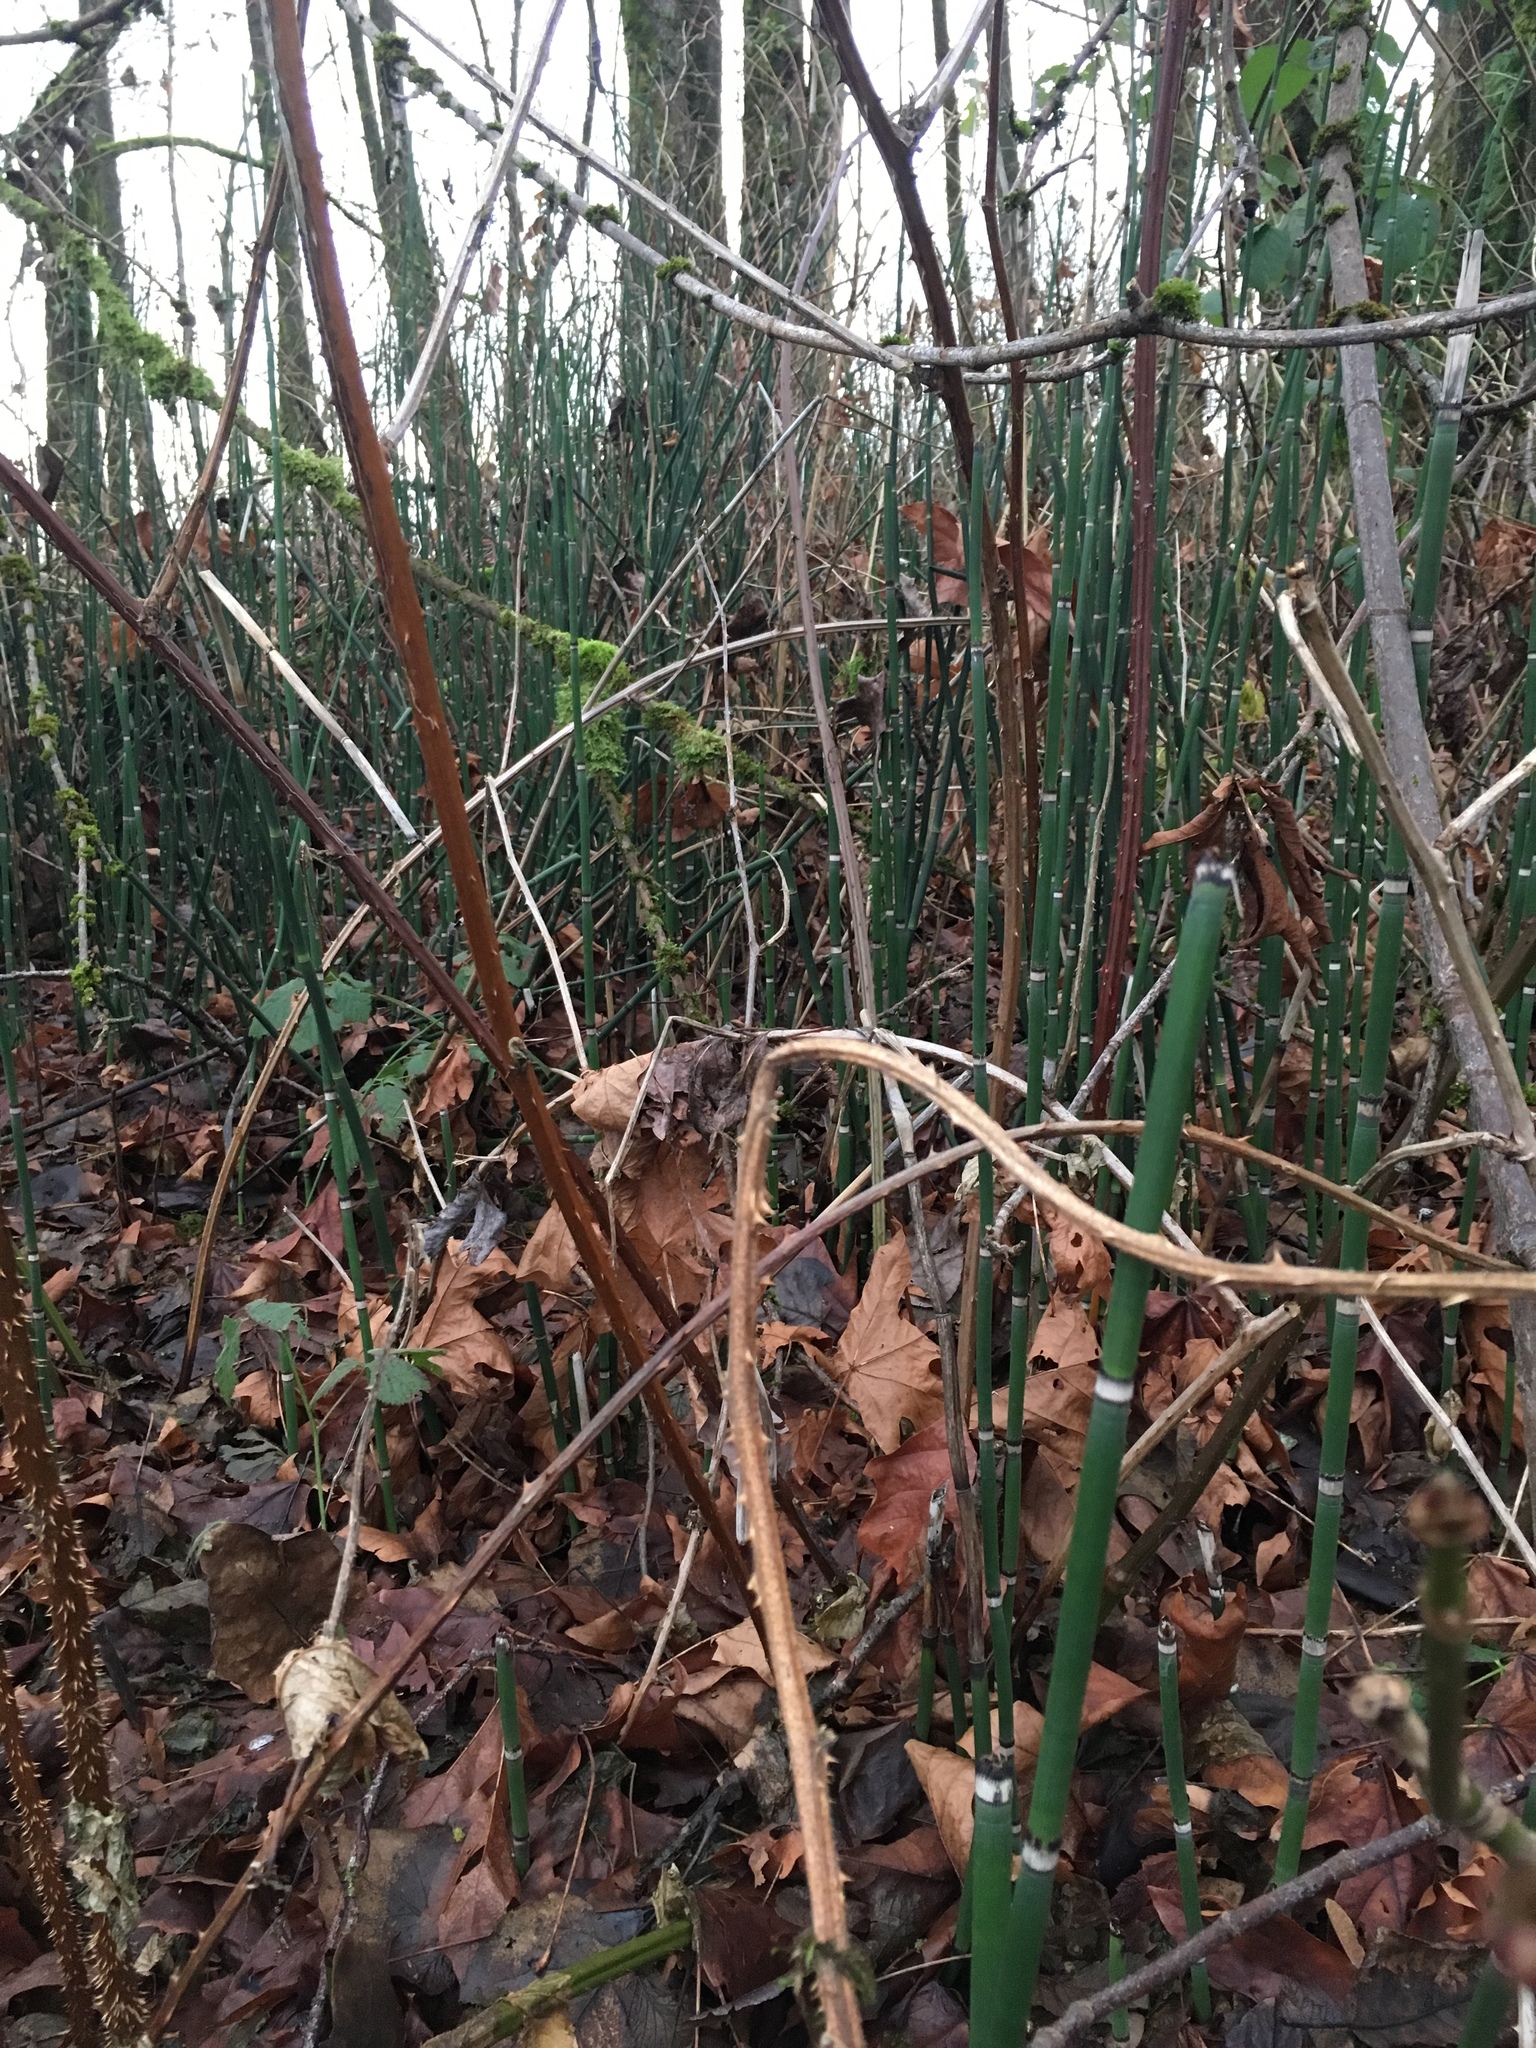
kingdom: Plantae
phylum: Tracheophyta
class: Polypodiopsida
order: Equisetales
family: Equisetaceae
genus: Equisetum
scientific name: Equisetum praealtum
